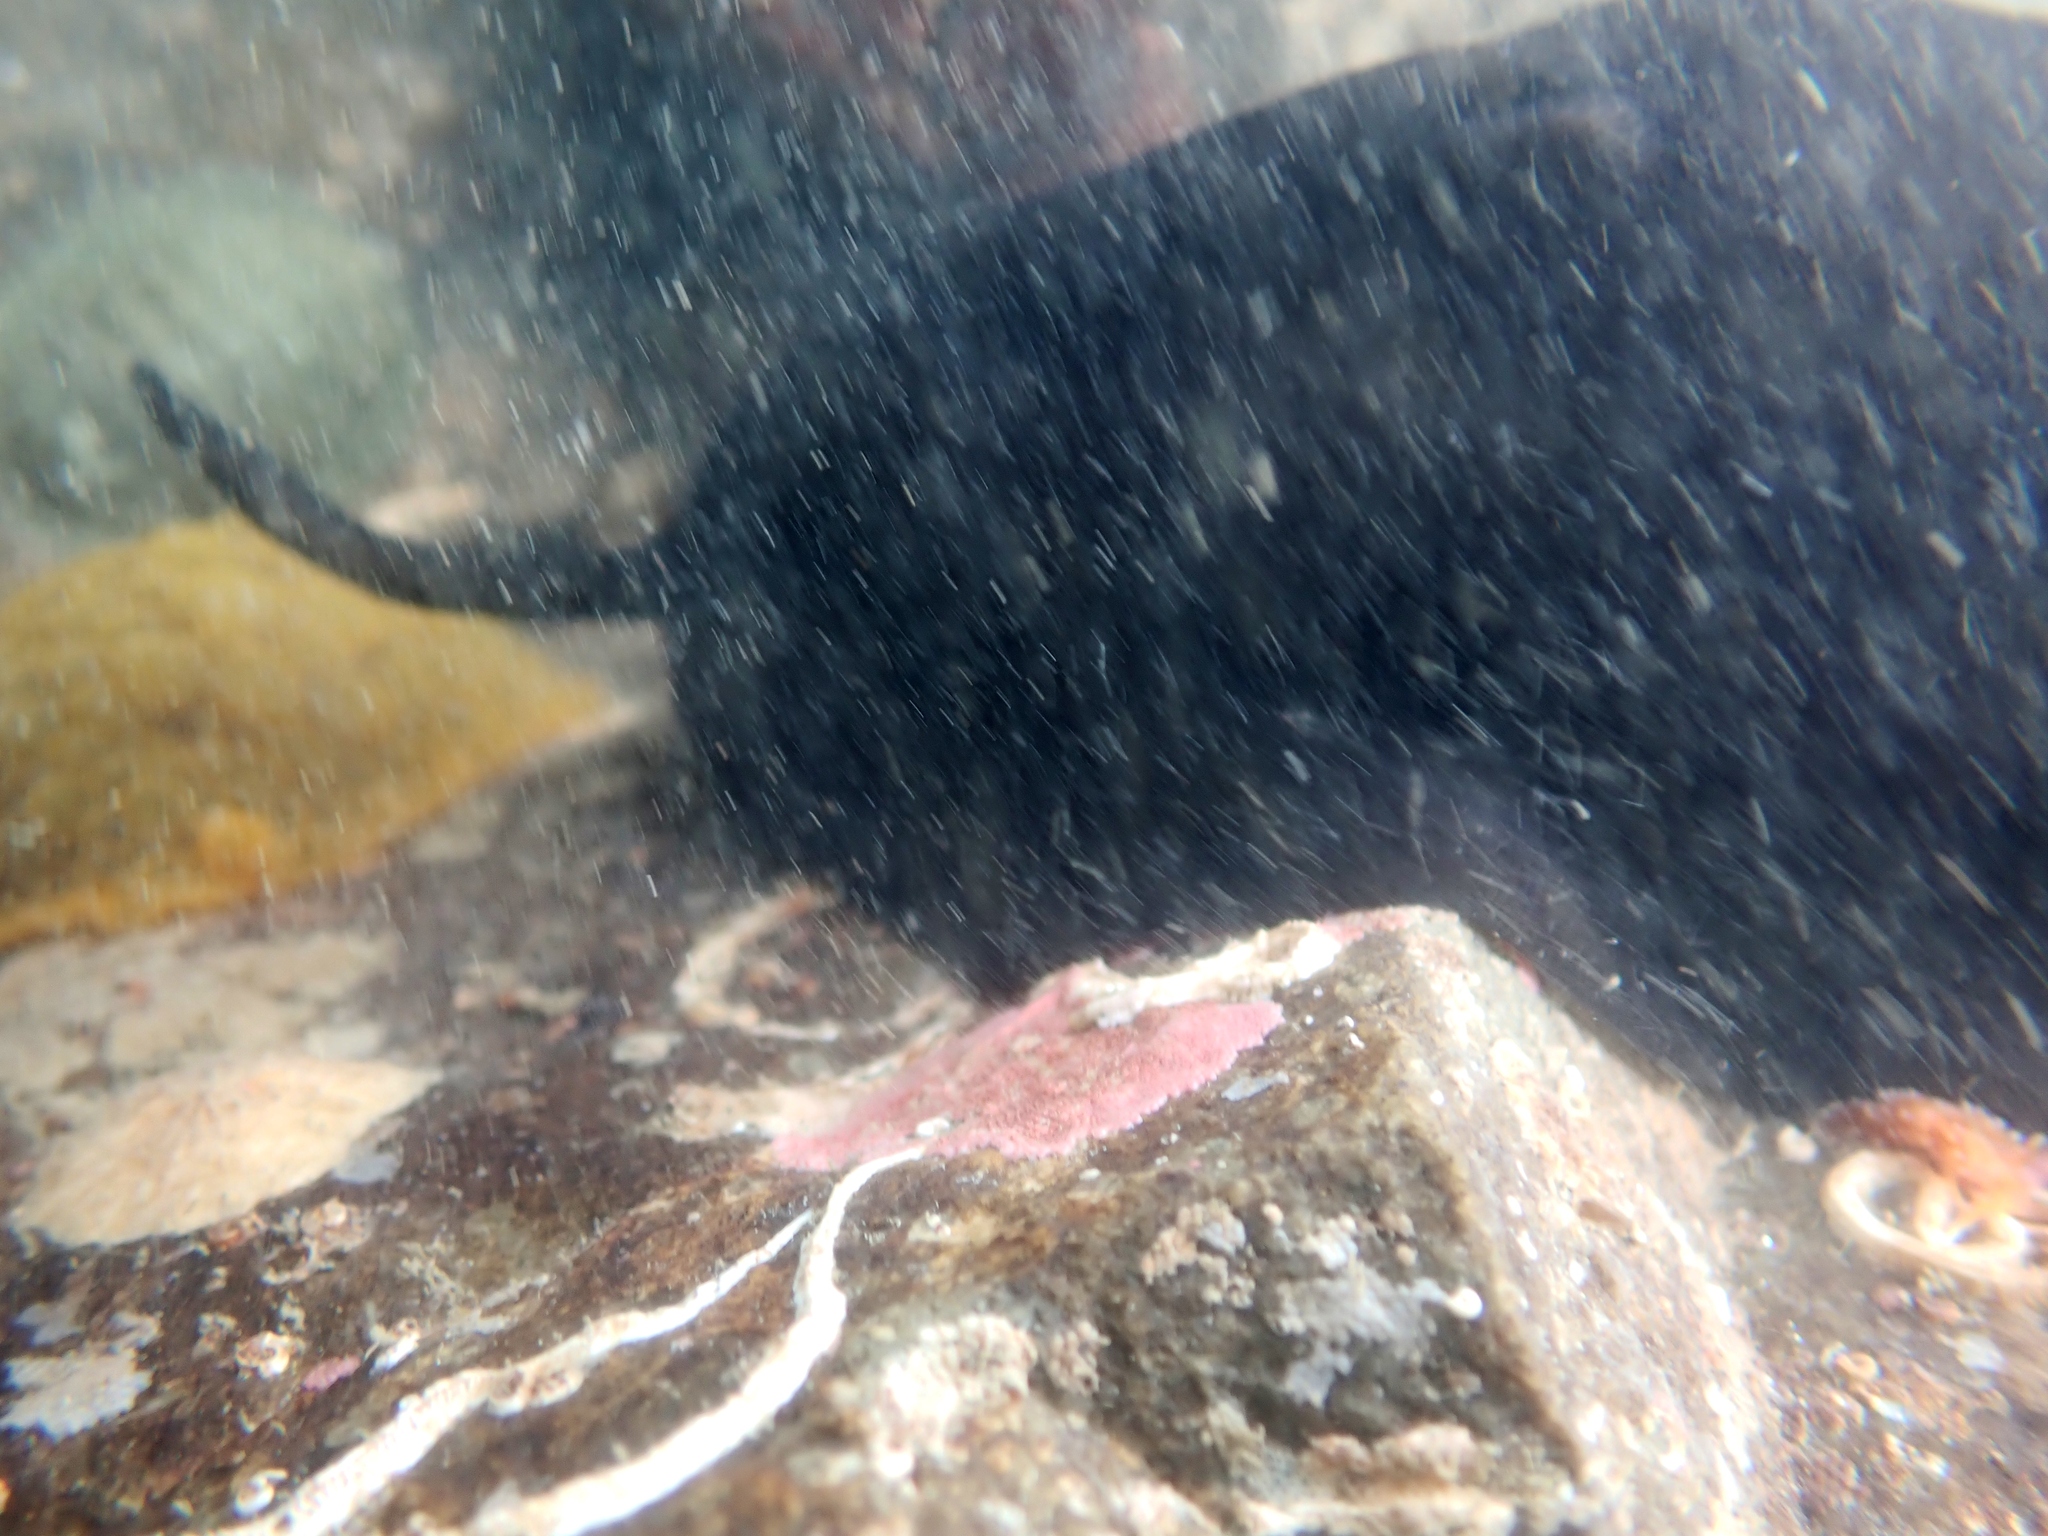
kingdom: Animalia
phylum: Mollusca
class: Gastropoda
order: Lepetellida
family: Fissurellidae
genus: Scutus
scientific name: Scutus breviculus
